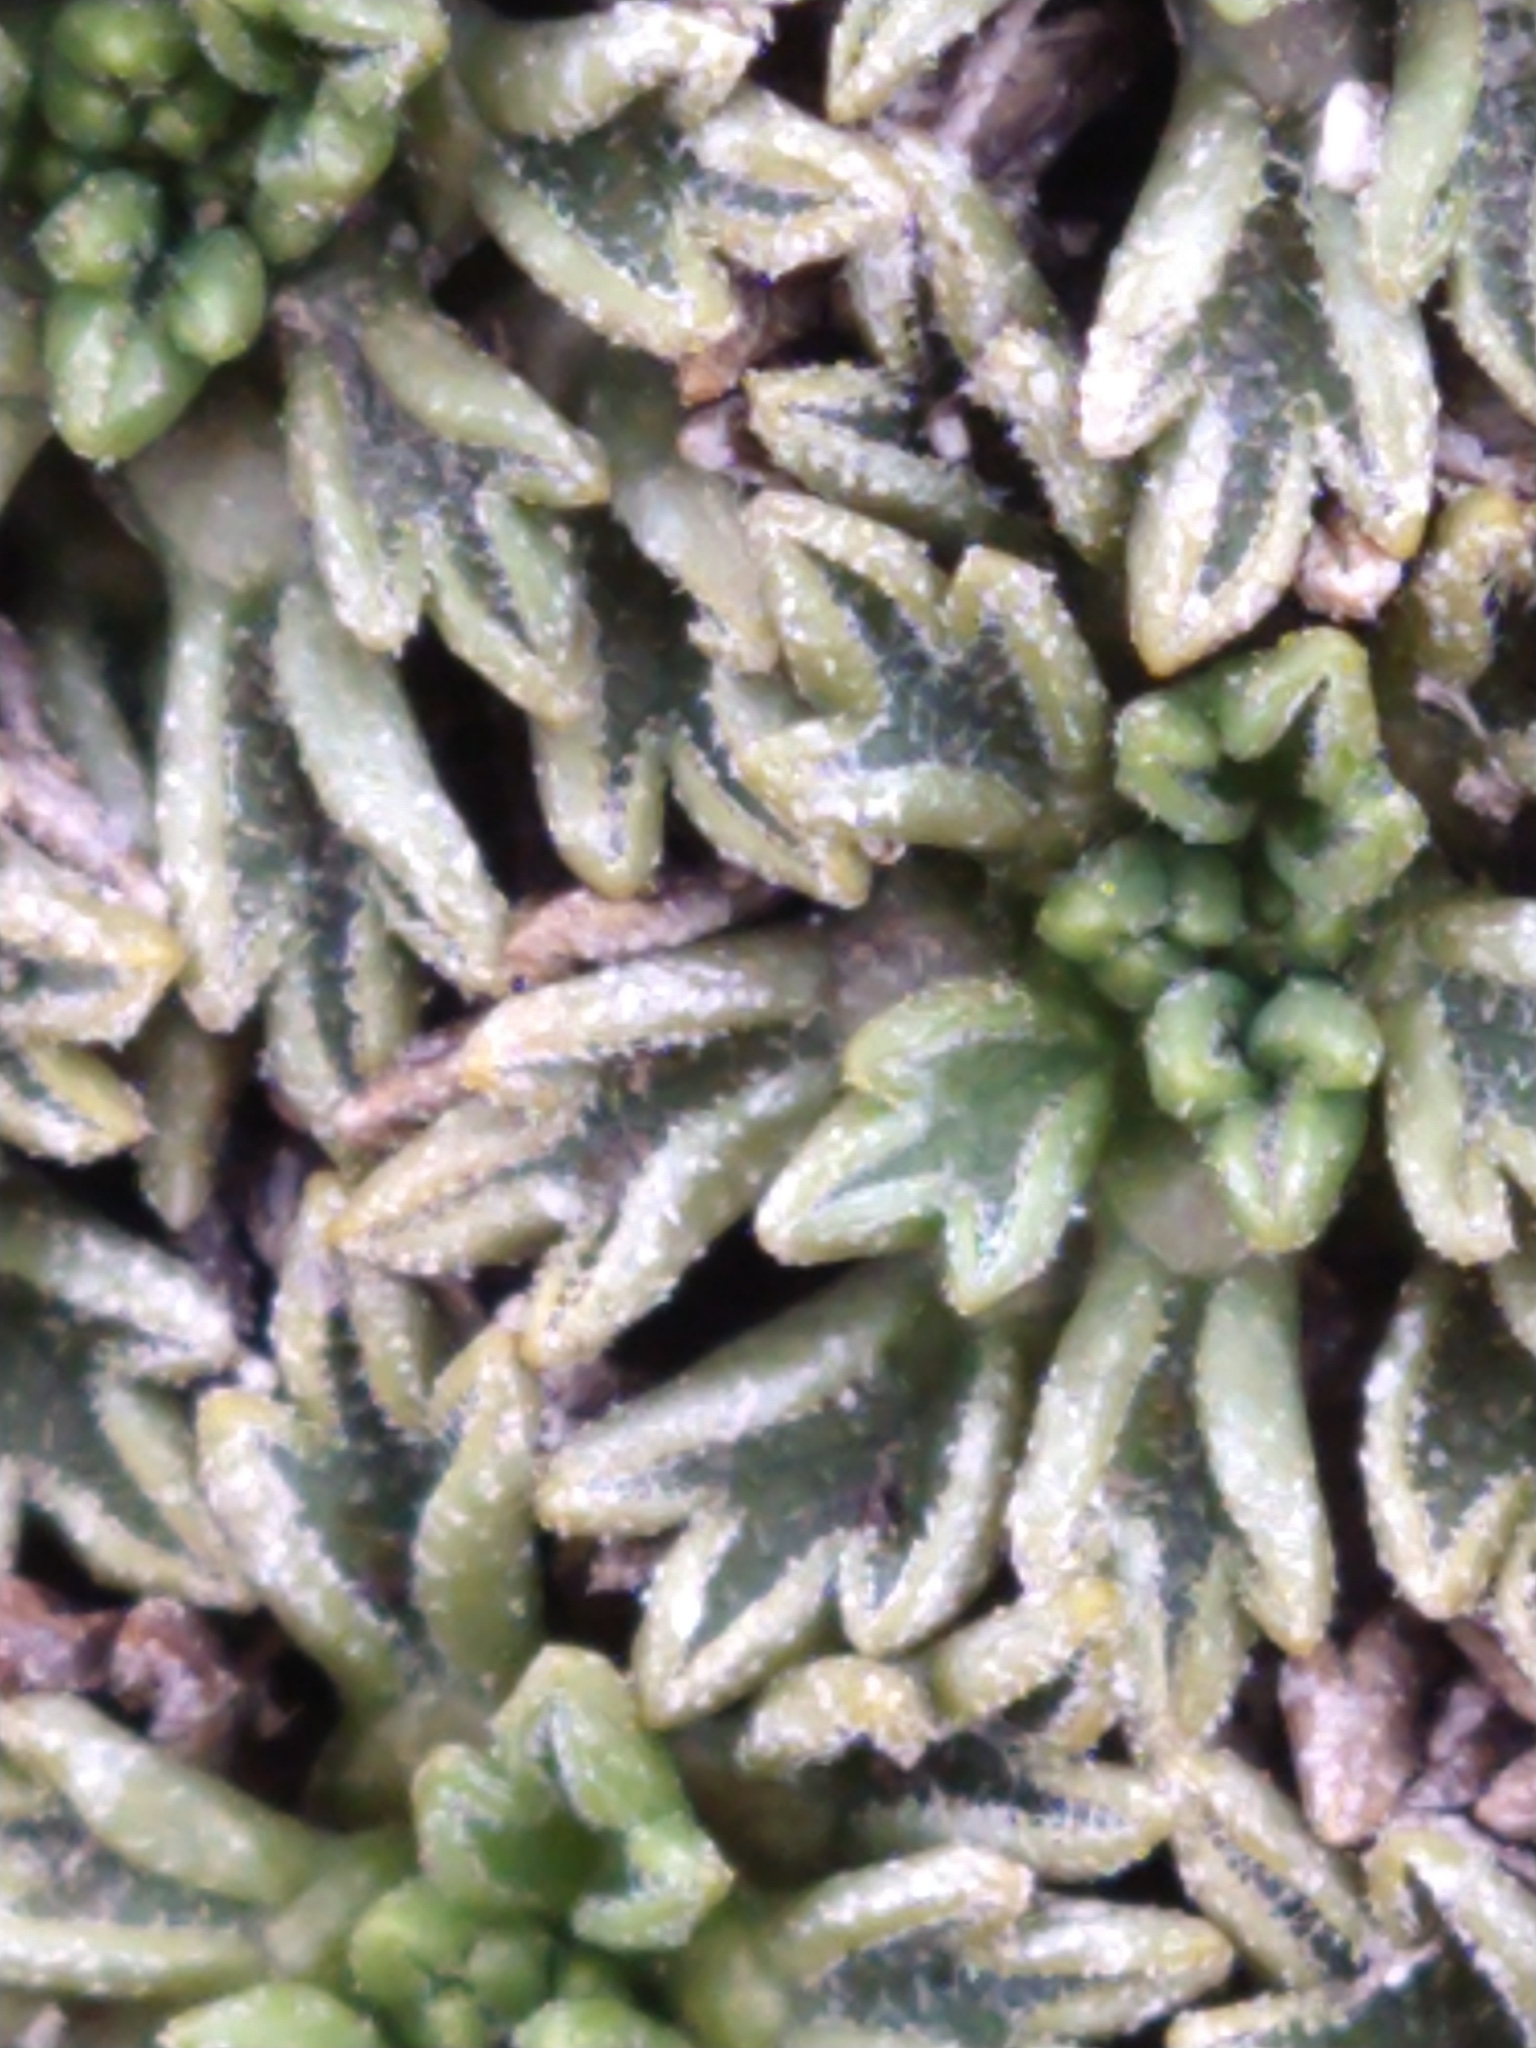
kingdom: Plantae
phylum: Tracheophyta
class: Magnoliopsida
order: Apiales
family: Apiaceae
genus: Bolax
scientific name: Bolax gummifera
